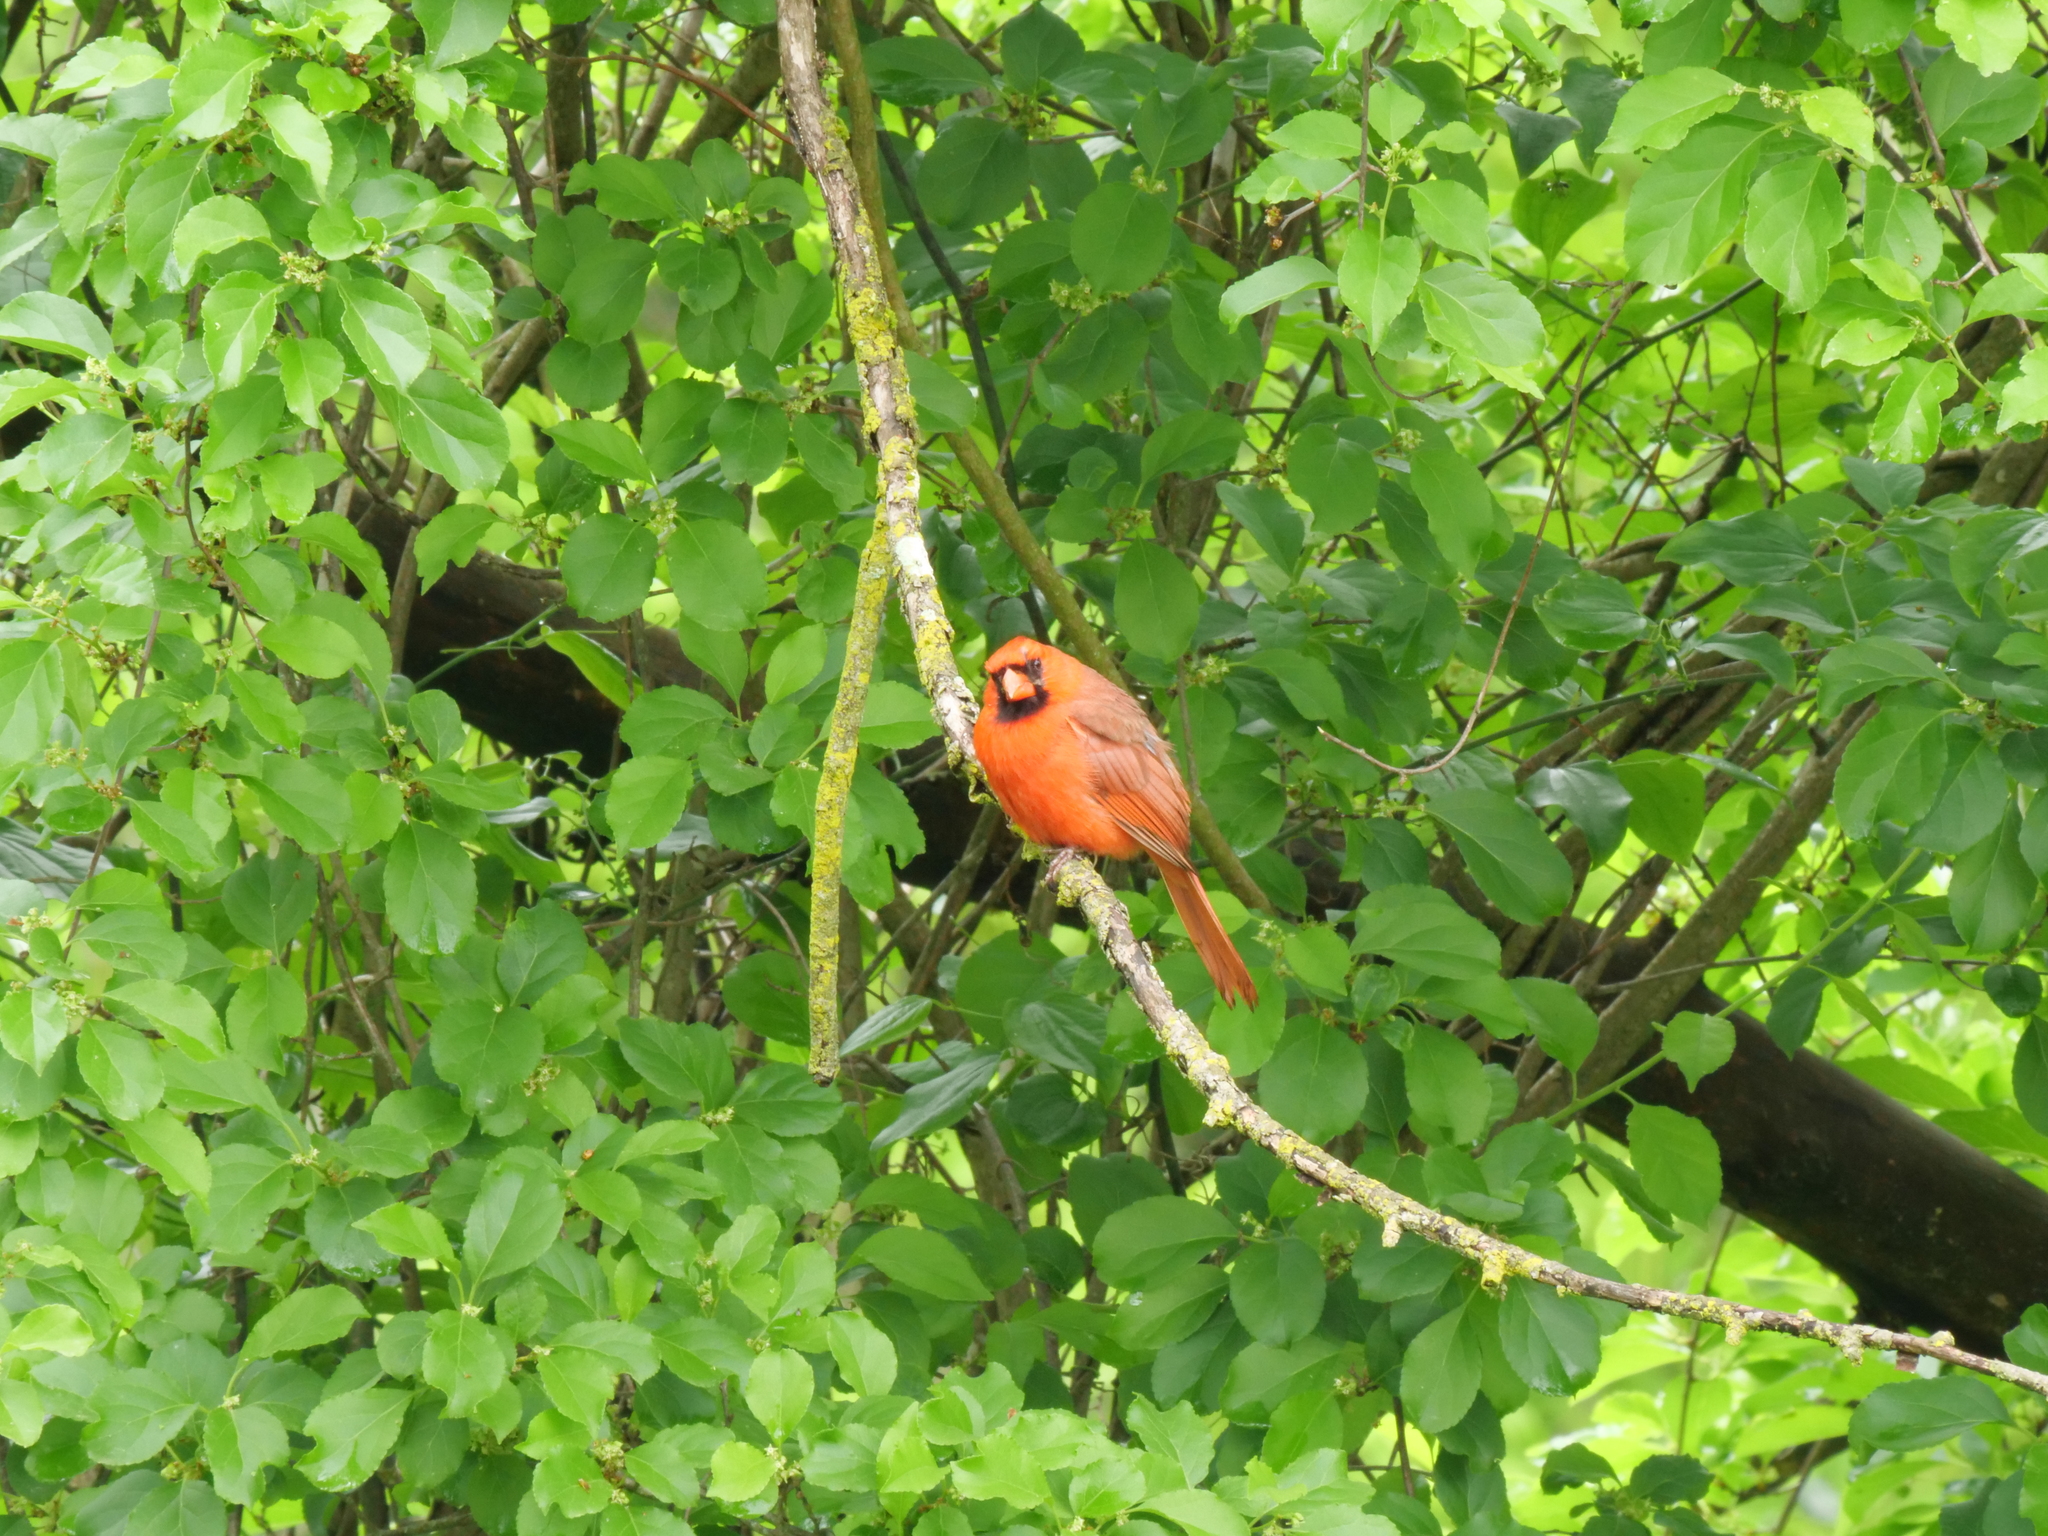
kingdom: Animalia
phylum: Chordata
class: Aves
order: Passeriformes
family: Cardinalidae
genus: Cardinalis
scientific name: Cardinalis cardinalis
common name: Northern cardinal
